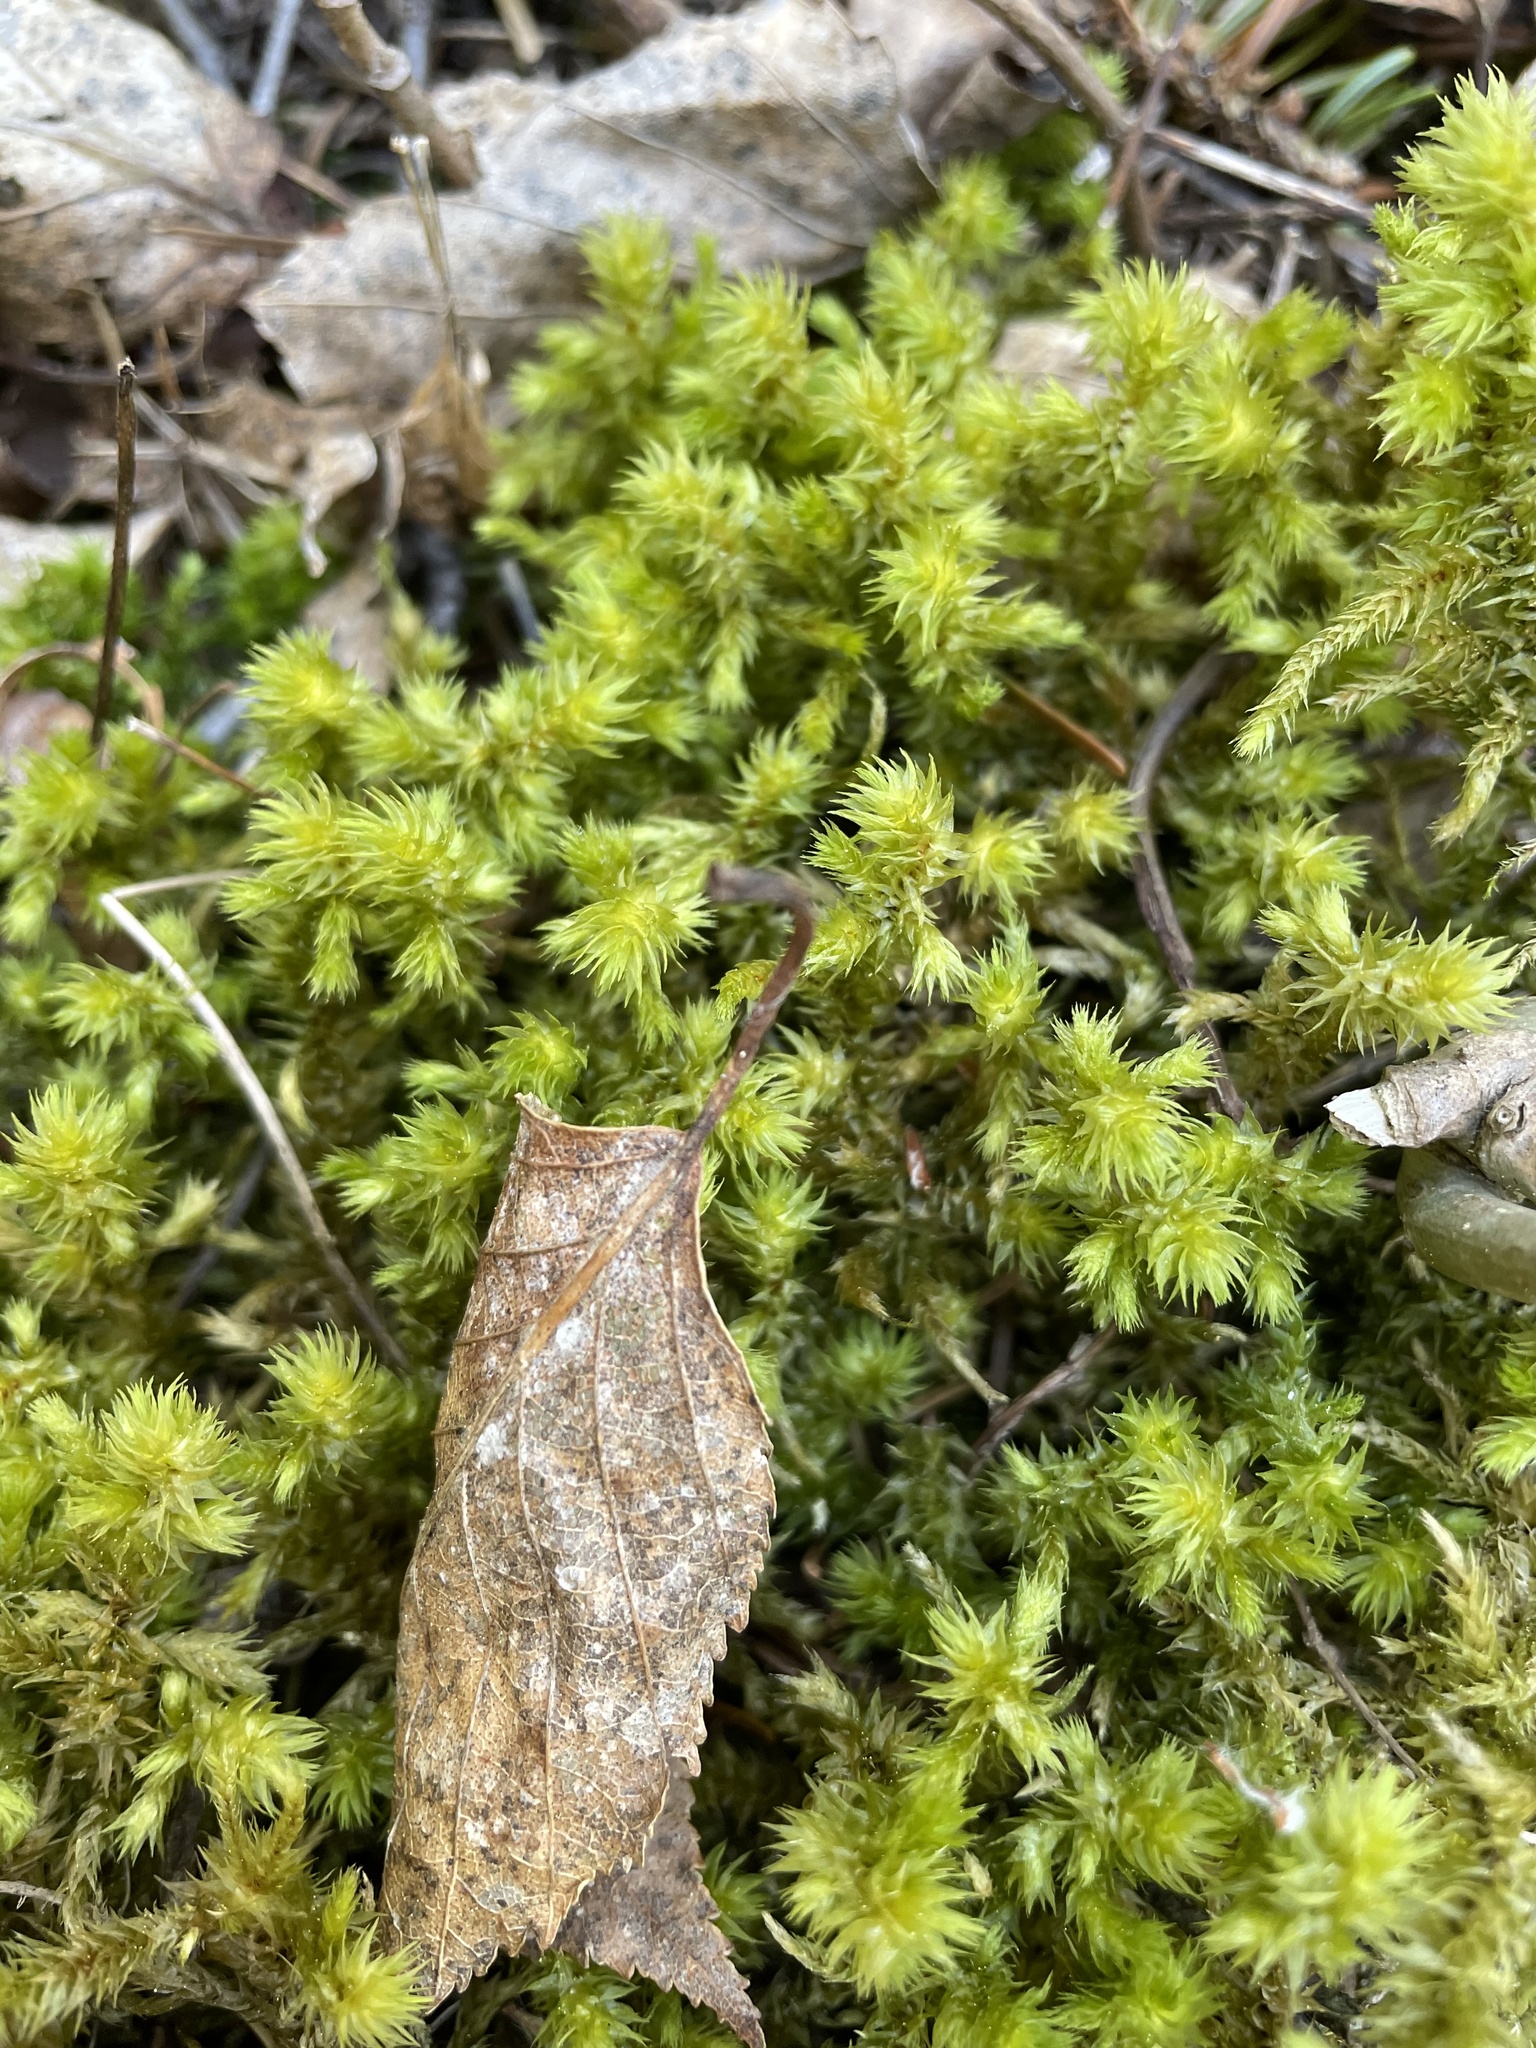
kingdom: Plantae
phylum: Bryophyta
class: Bryopsida
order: Hypnales
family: Hylocomiaceae
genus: Hylocomiadelphus
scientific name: Hylocomiadelphus triquetrus
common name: Rough goose neck moss
